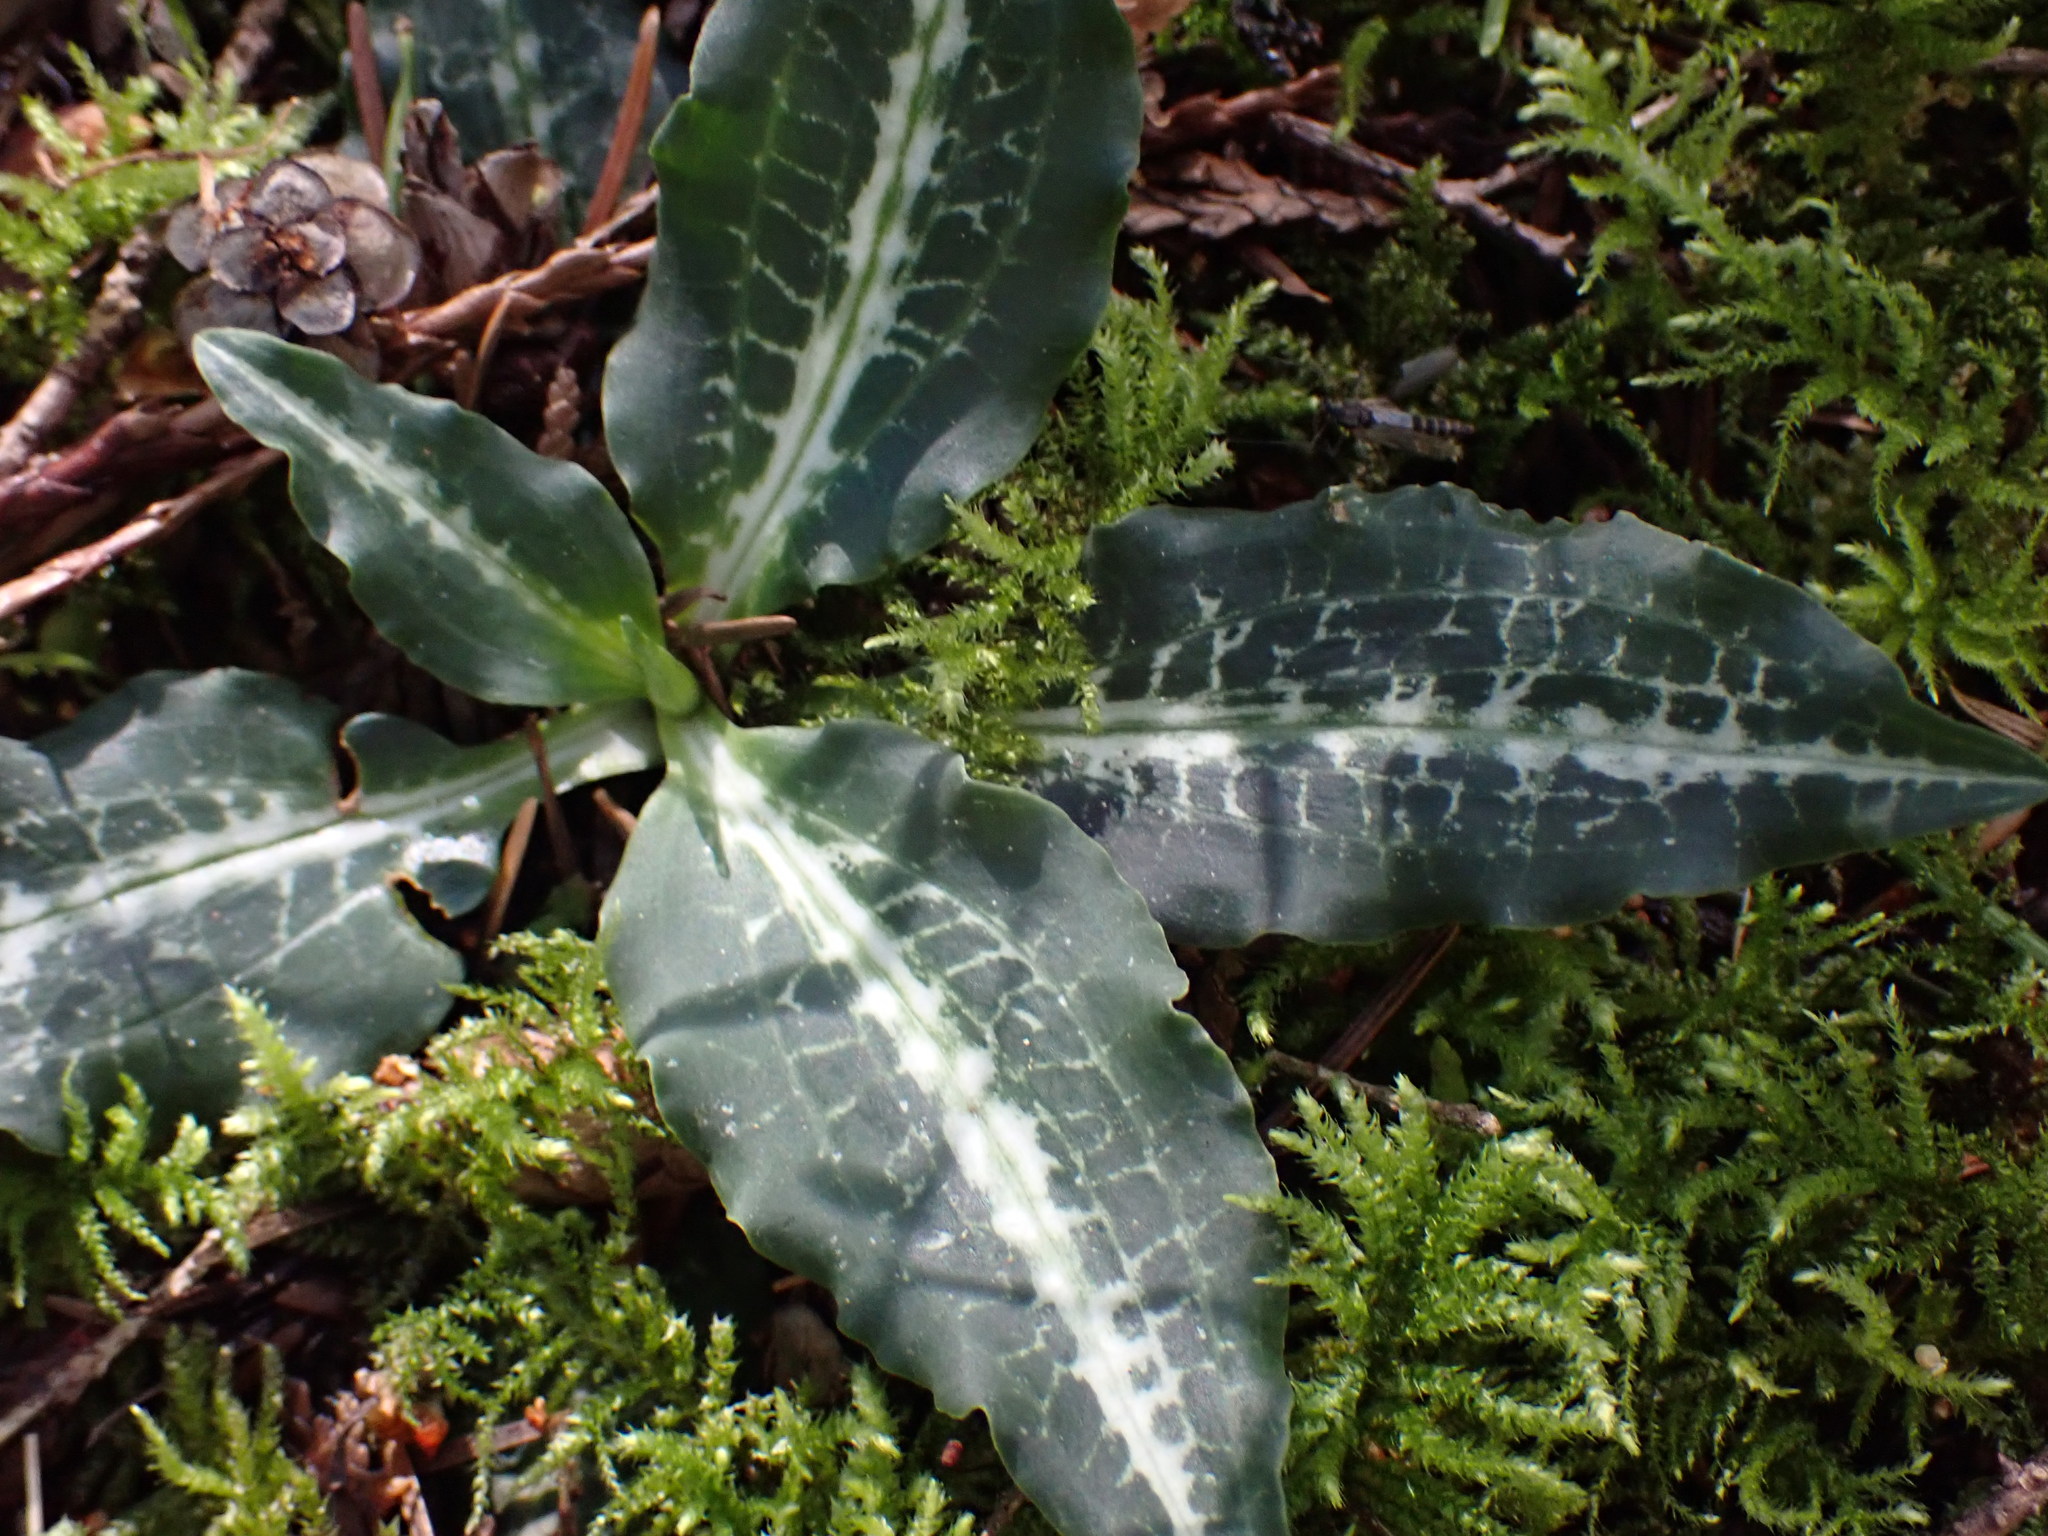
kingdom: Plantae
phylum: Tracheophyta
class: Liliopsida
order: Asparagales
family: Orchidaceae
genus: Goodyera
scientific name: Goodyera oblongifolia
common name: Giant rattlesnake-plantain
